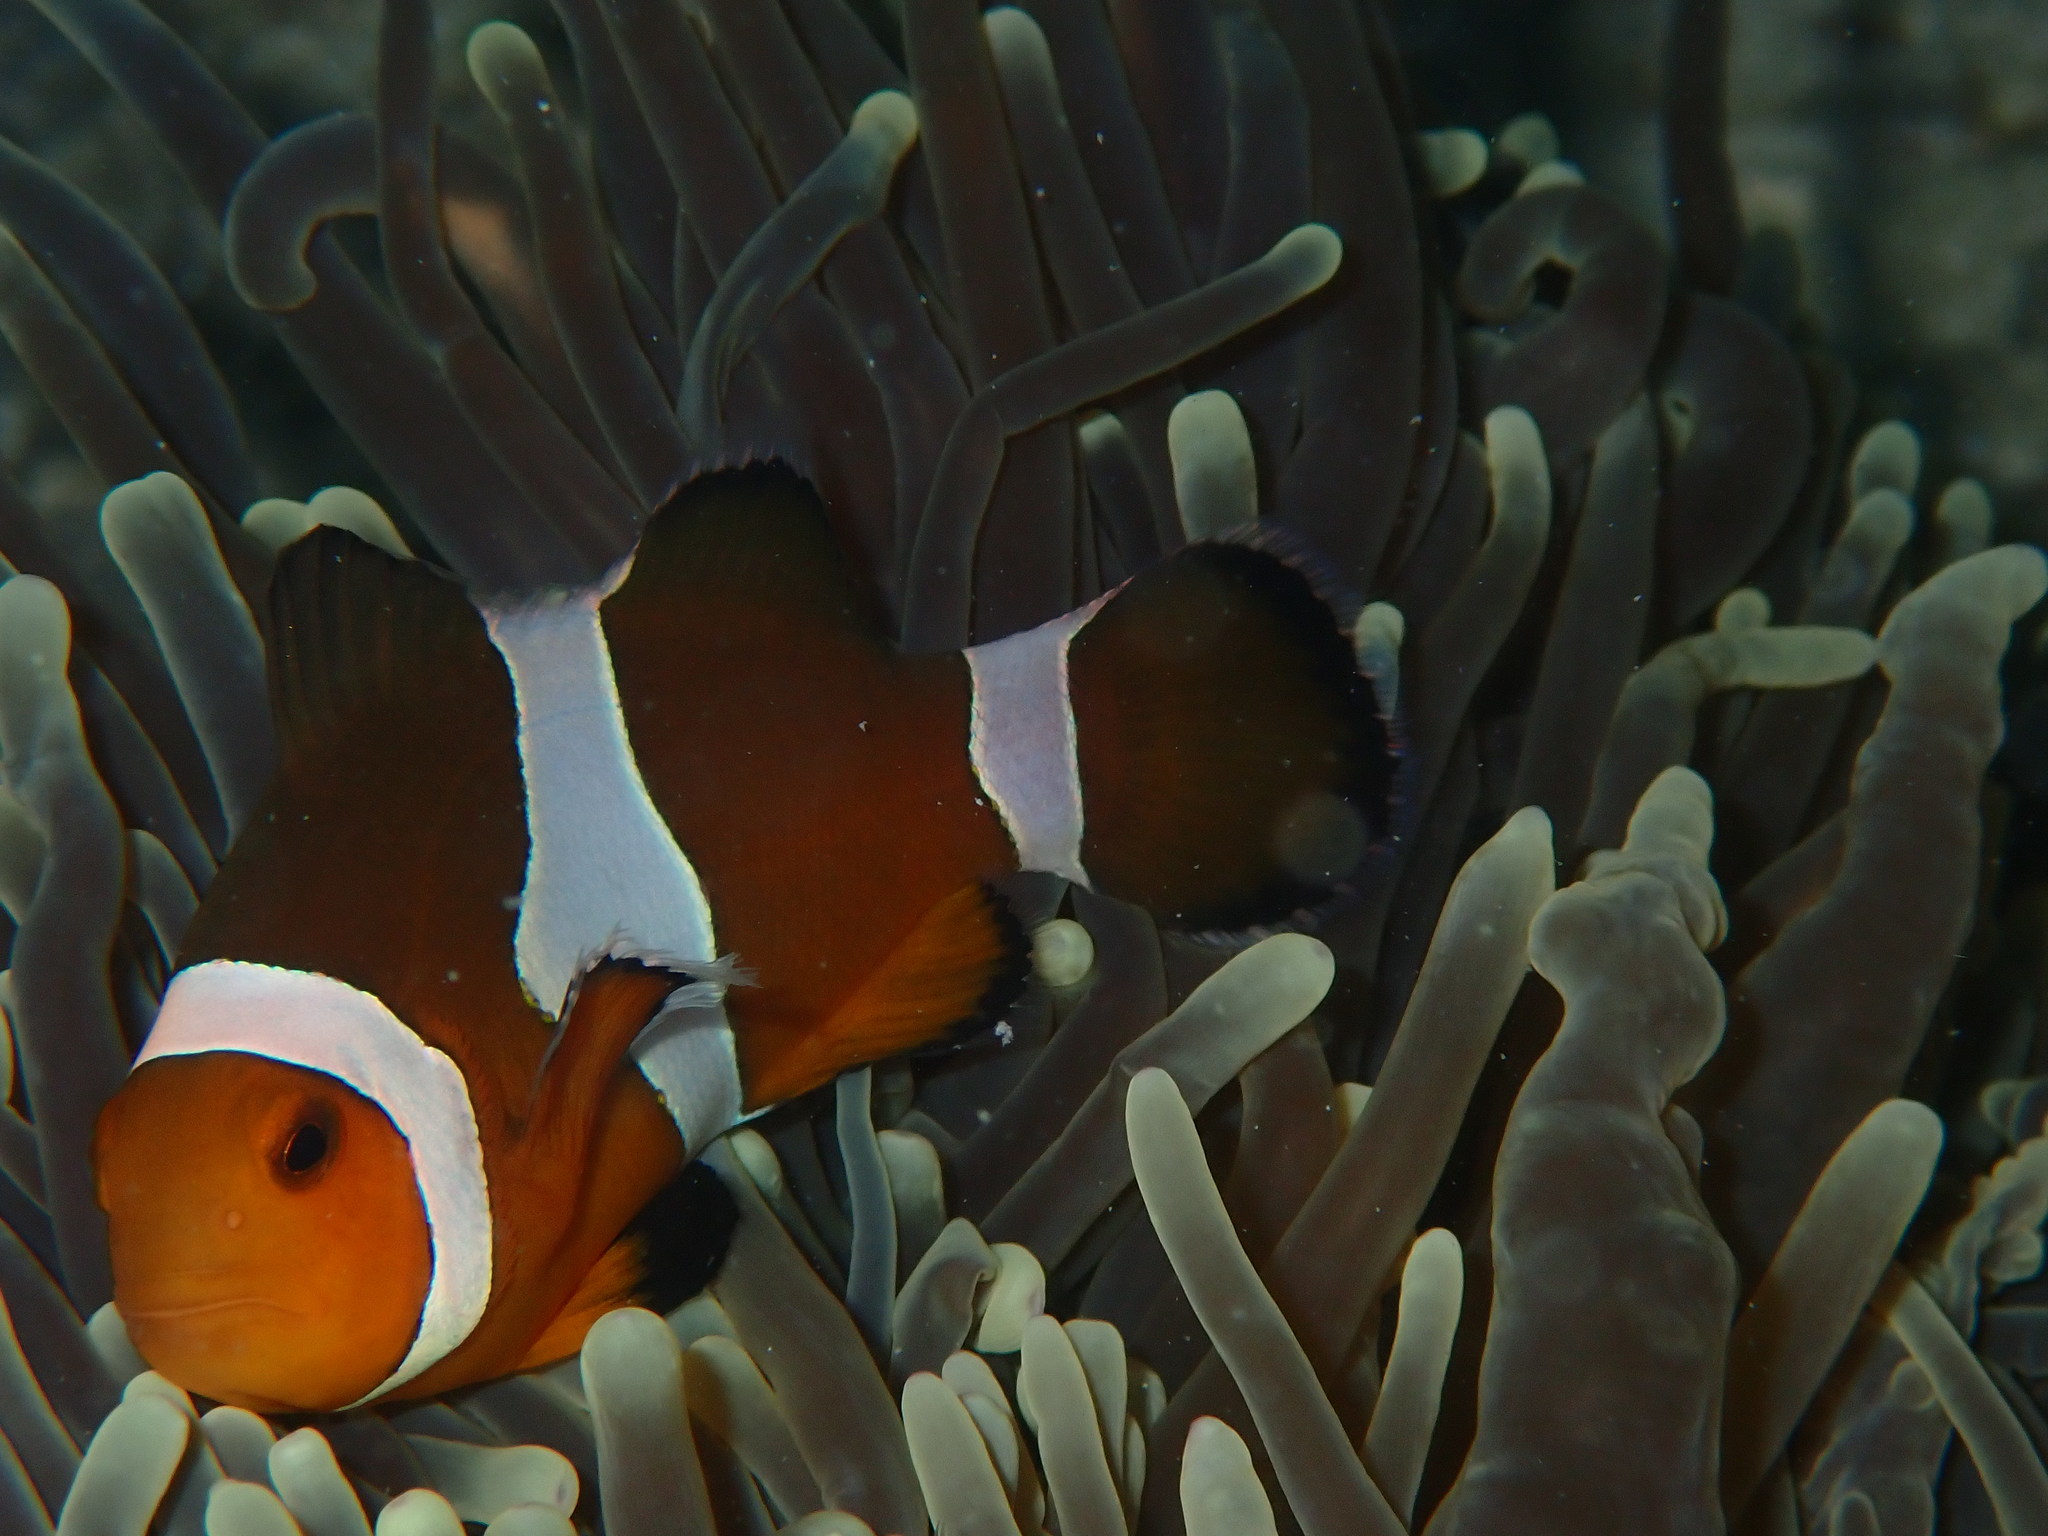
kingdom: Animalia
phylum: Chordata
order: Perciformes
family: Pomacentridae
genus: Amphiprion
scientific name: Amphiprion ocellaris
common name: Clown anemonefish
